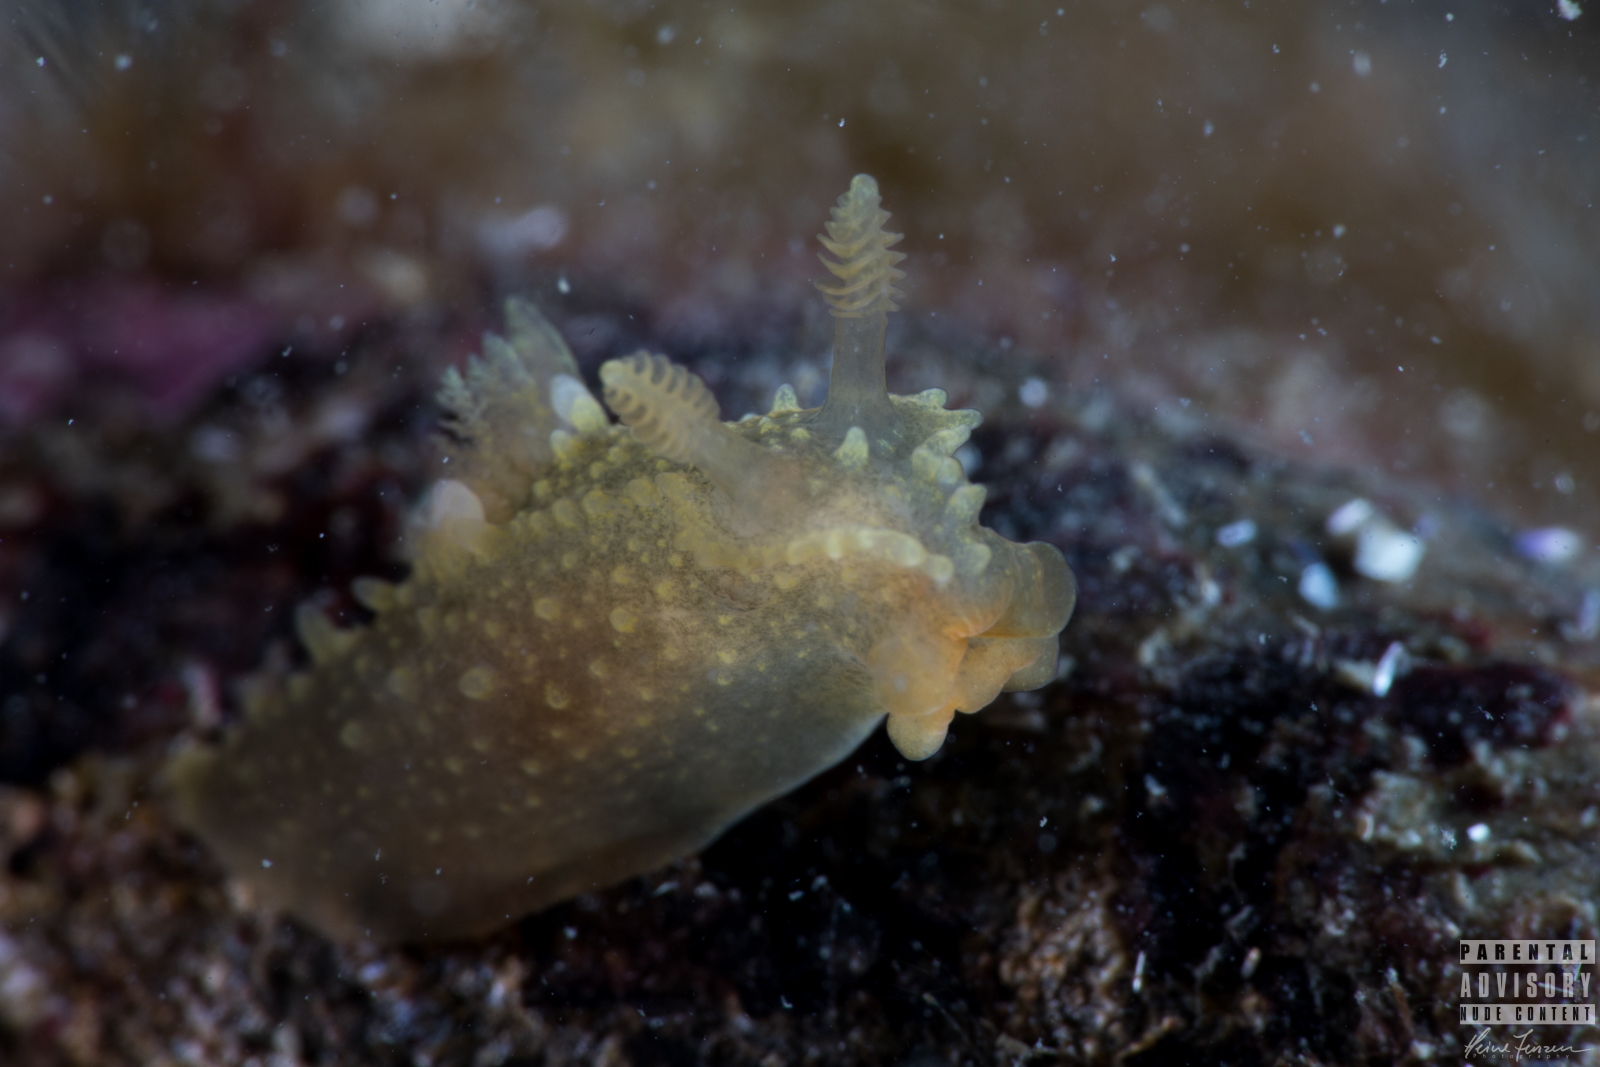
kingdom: Animalia
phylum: Mollusca
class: Gastropoda
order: Nudibranchia
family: Polyceridae
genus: Palio
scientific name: Palio dubia
